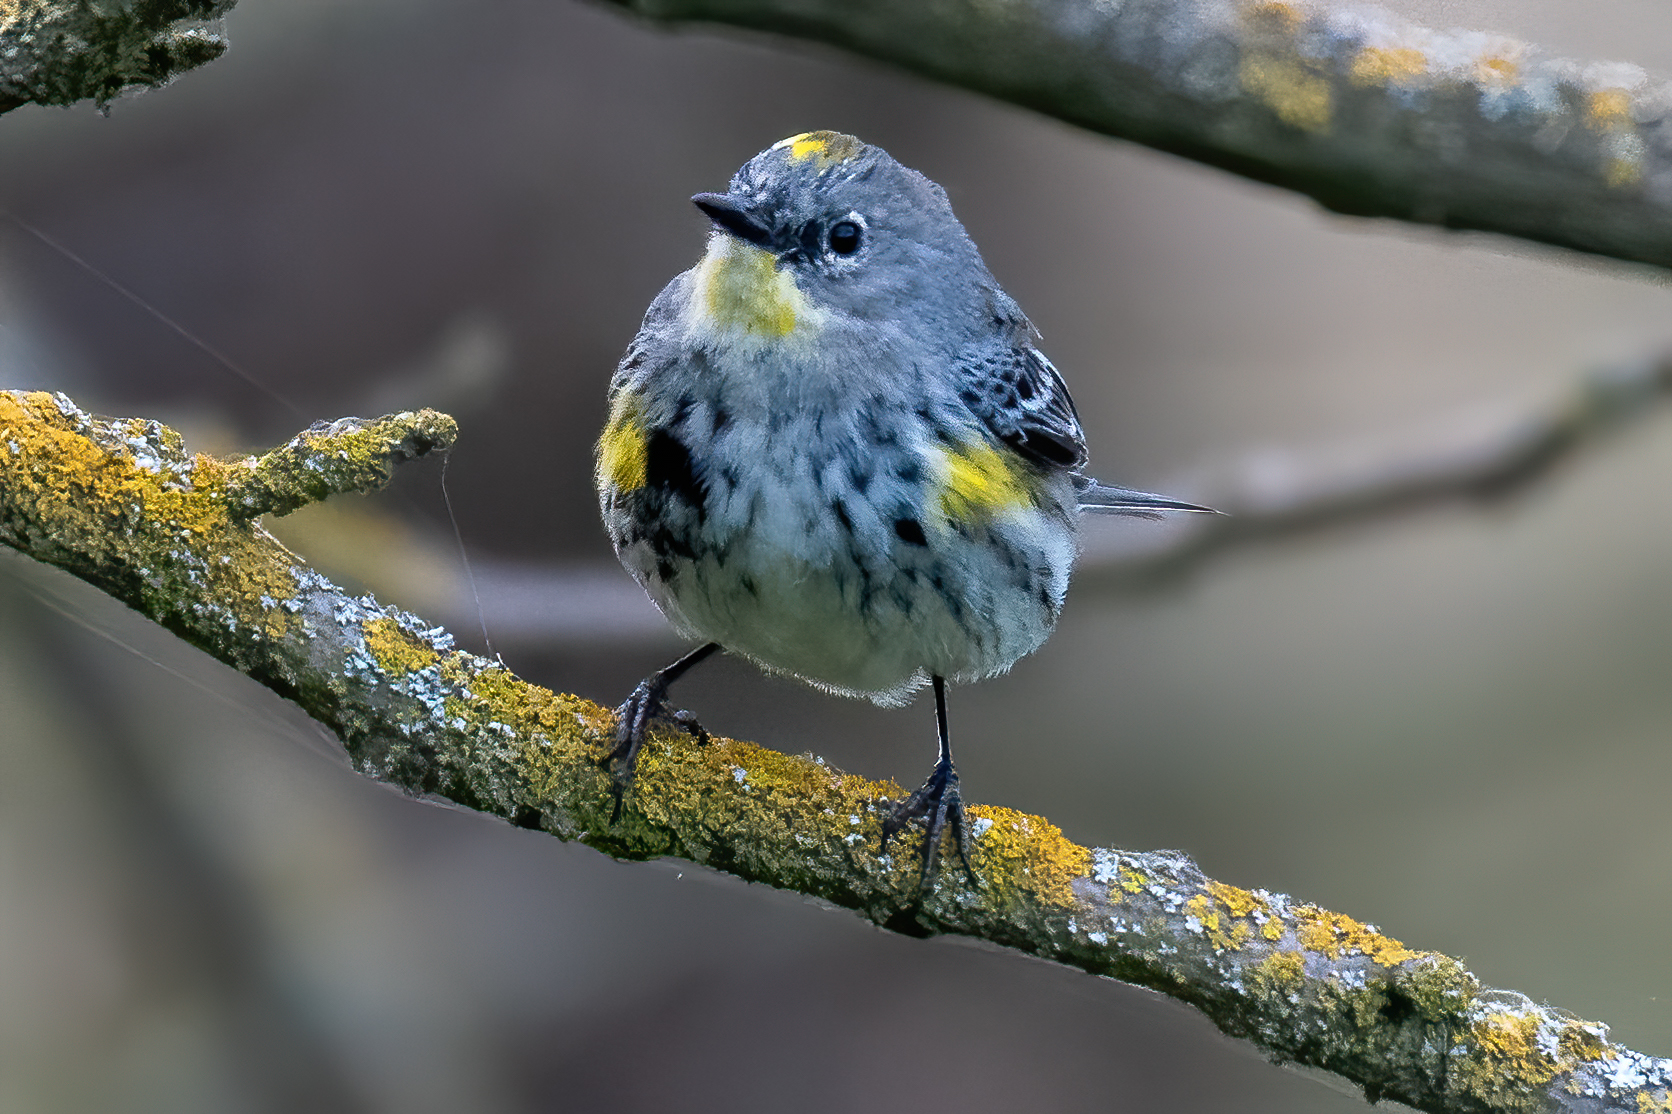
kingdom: Animalia
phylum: Chordata
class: Aves
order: Passeriformes
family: Parulidae
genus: Setophaga
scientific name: Setophaga auduboni
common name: Audubon's warbler
